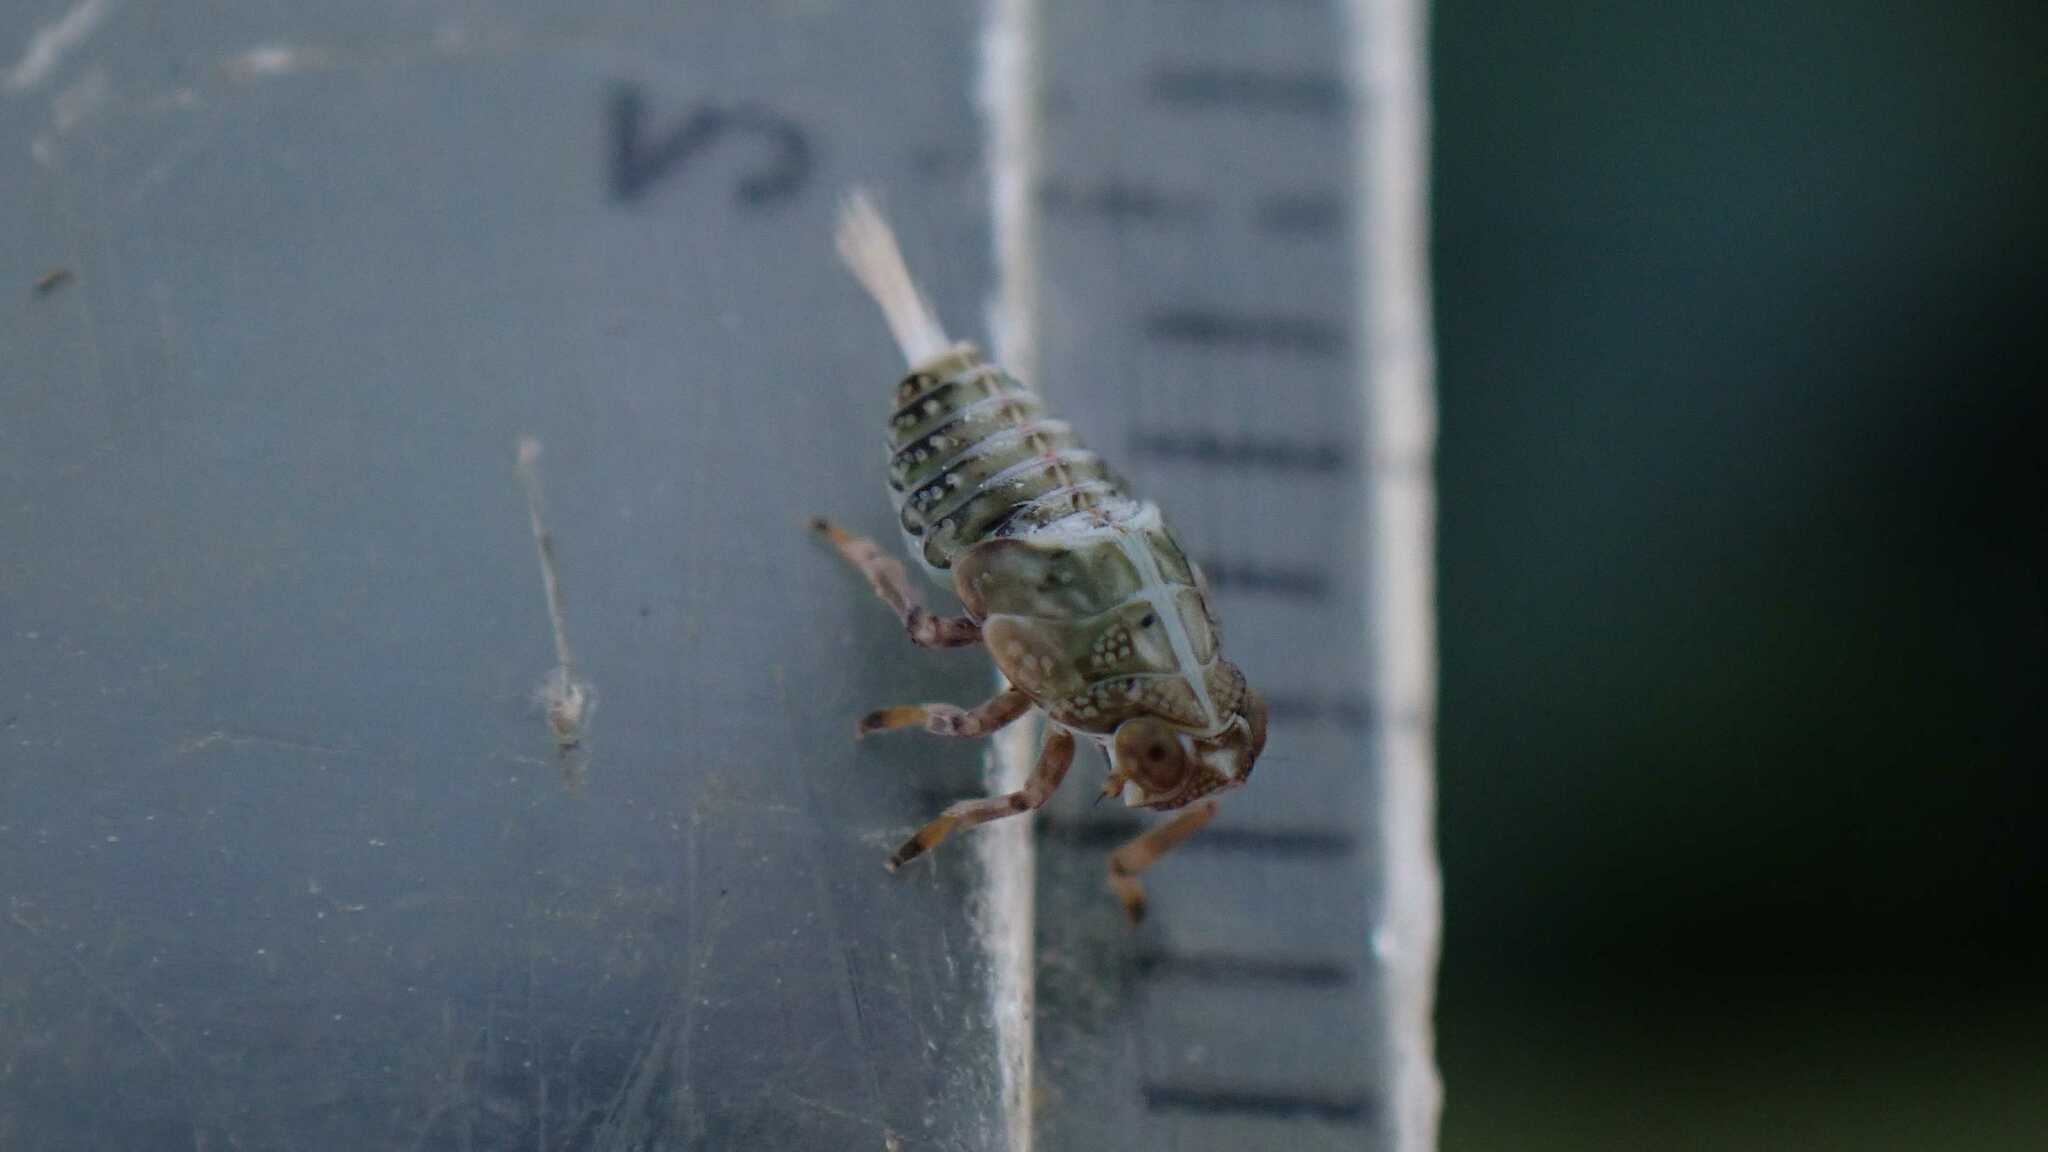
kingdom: Animalia
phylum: Arthropoda
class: Insecta
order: Hemiptera
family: Issidae
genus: Issus
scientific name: Issus coleoptratus
